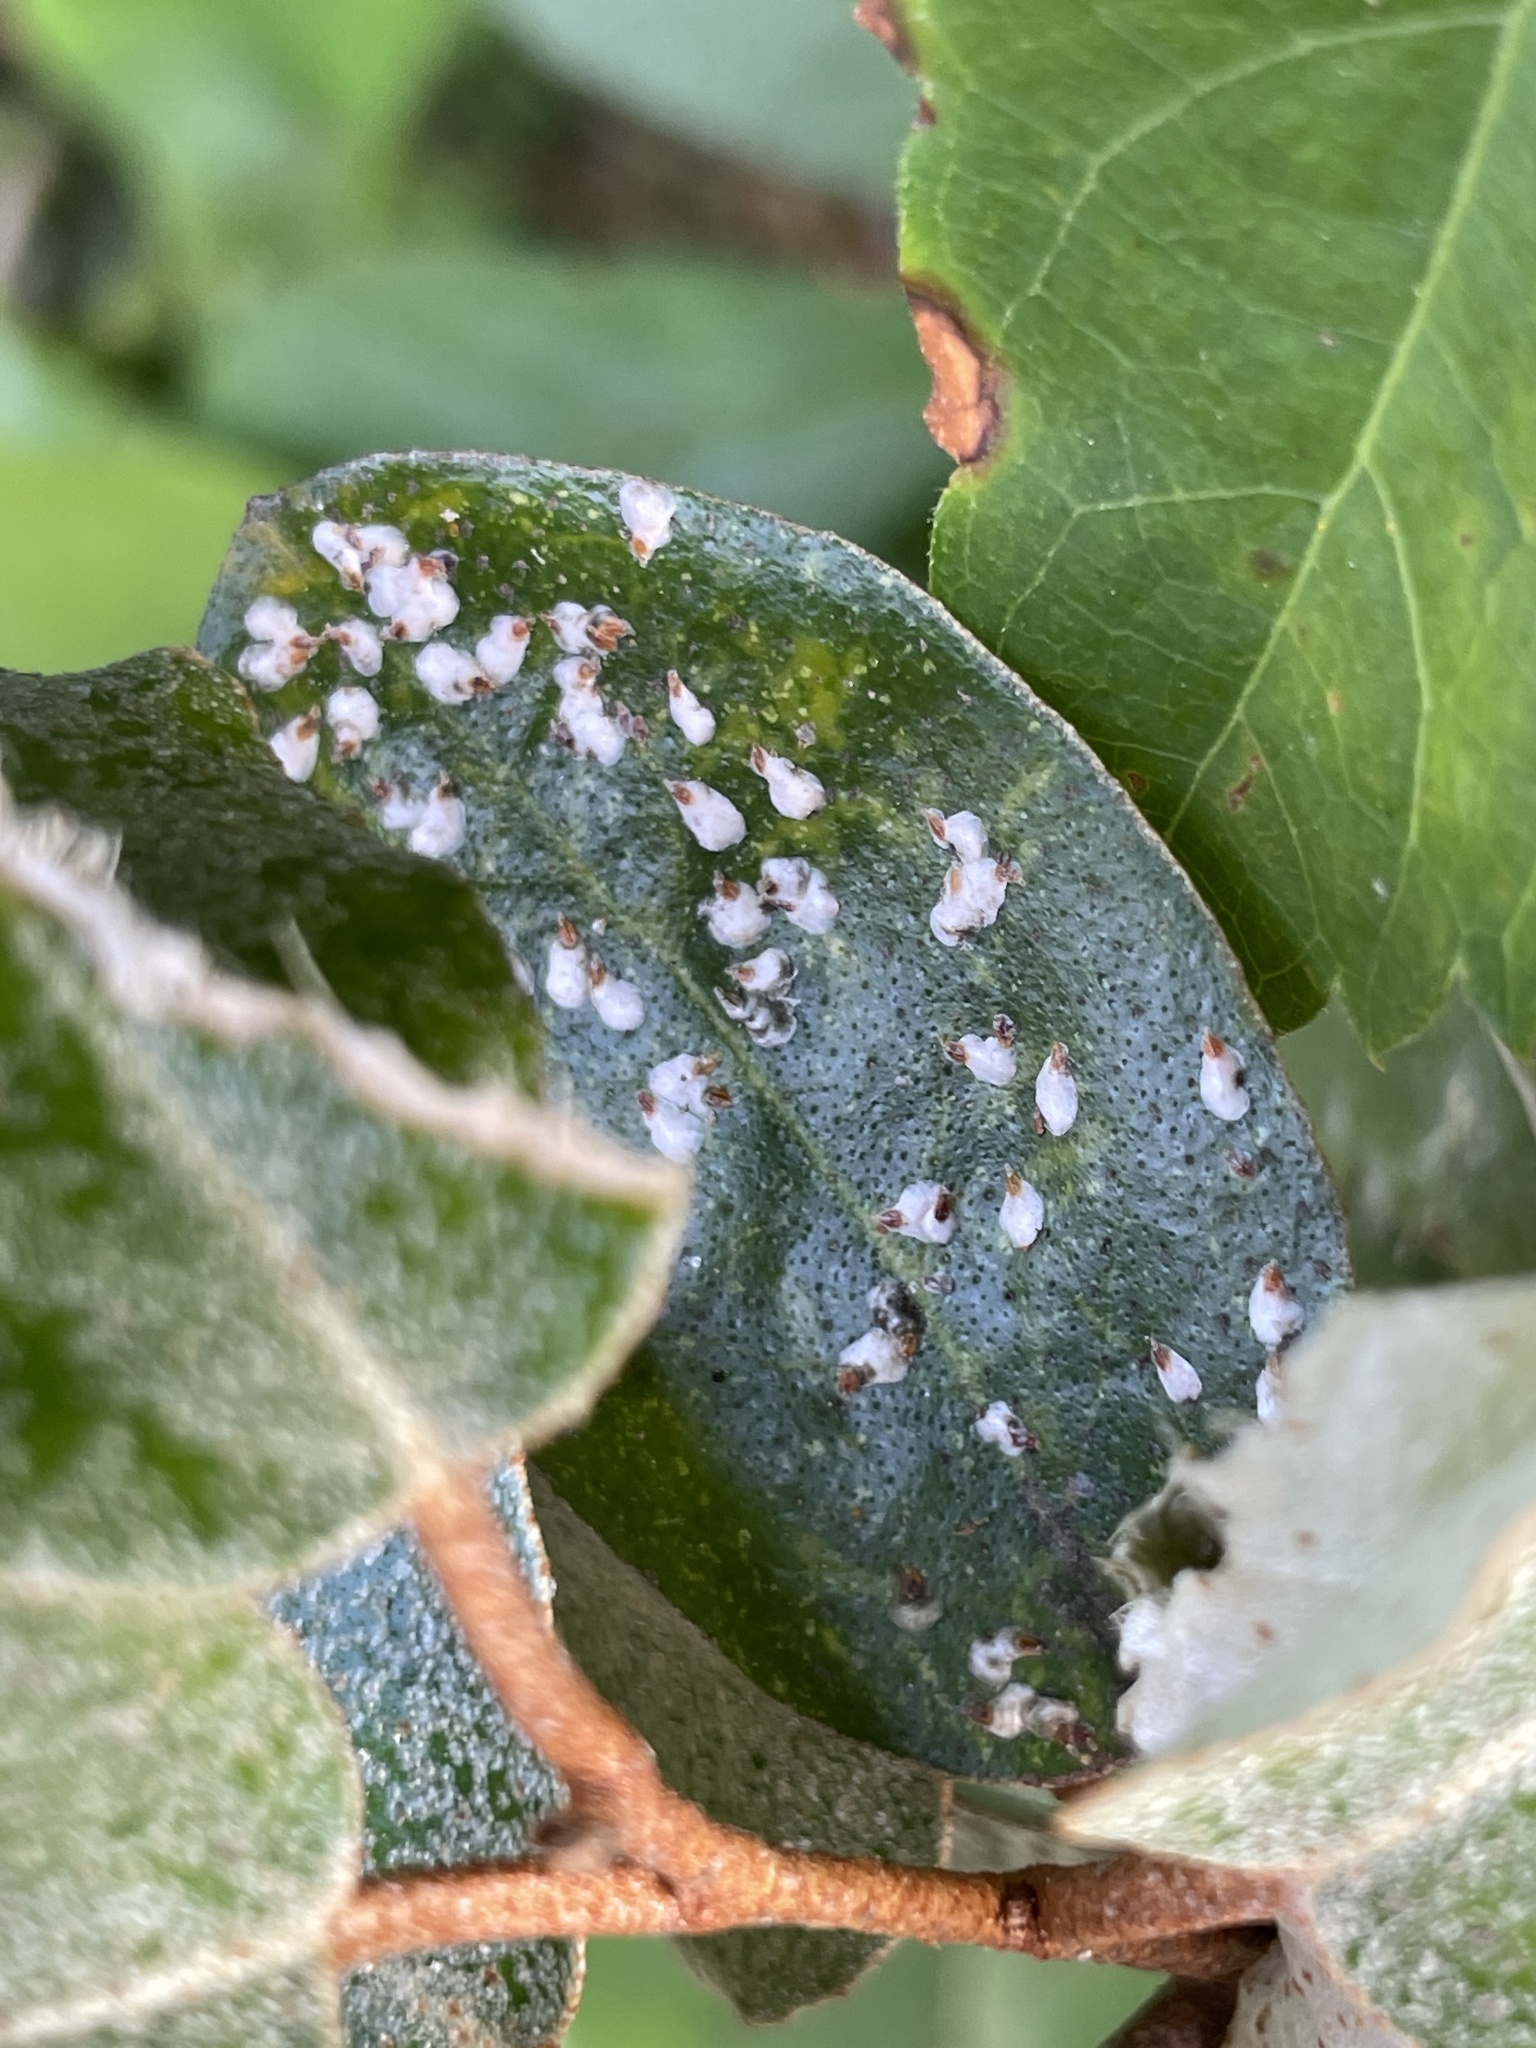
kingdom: Animalia
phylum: Arthropoda
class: Insecta
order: Hemiptera
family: Diaspididae
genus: Pseudaulacaspis
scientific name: Pseudaulacaspis cockerelli
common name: False oleander scale
